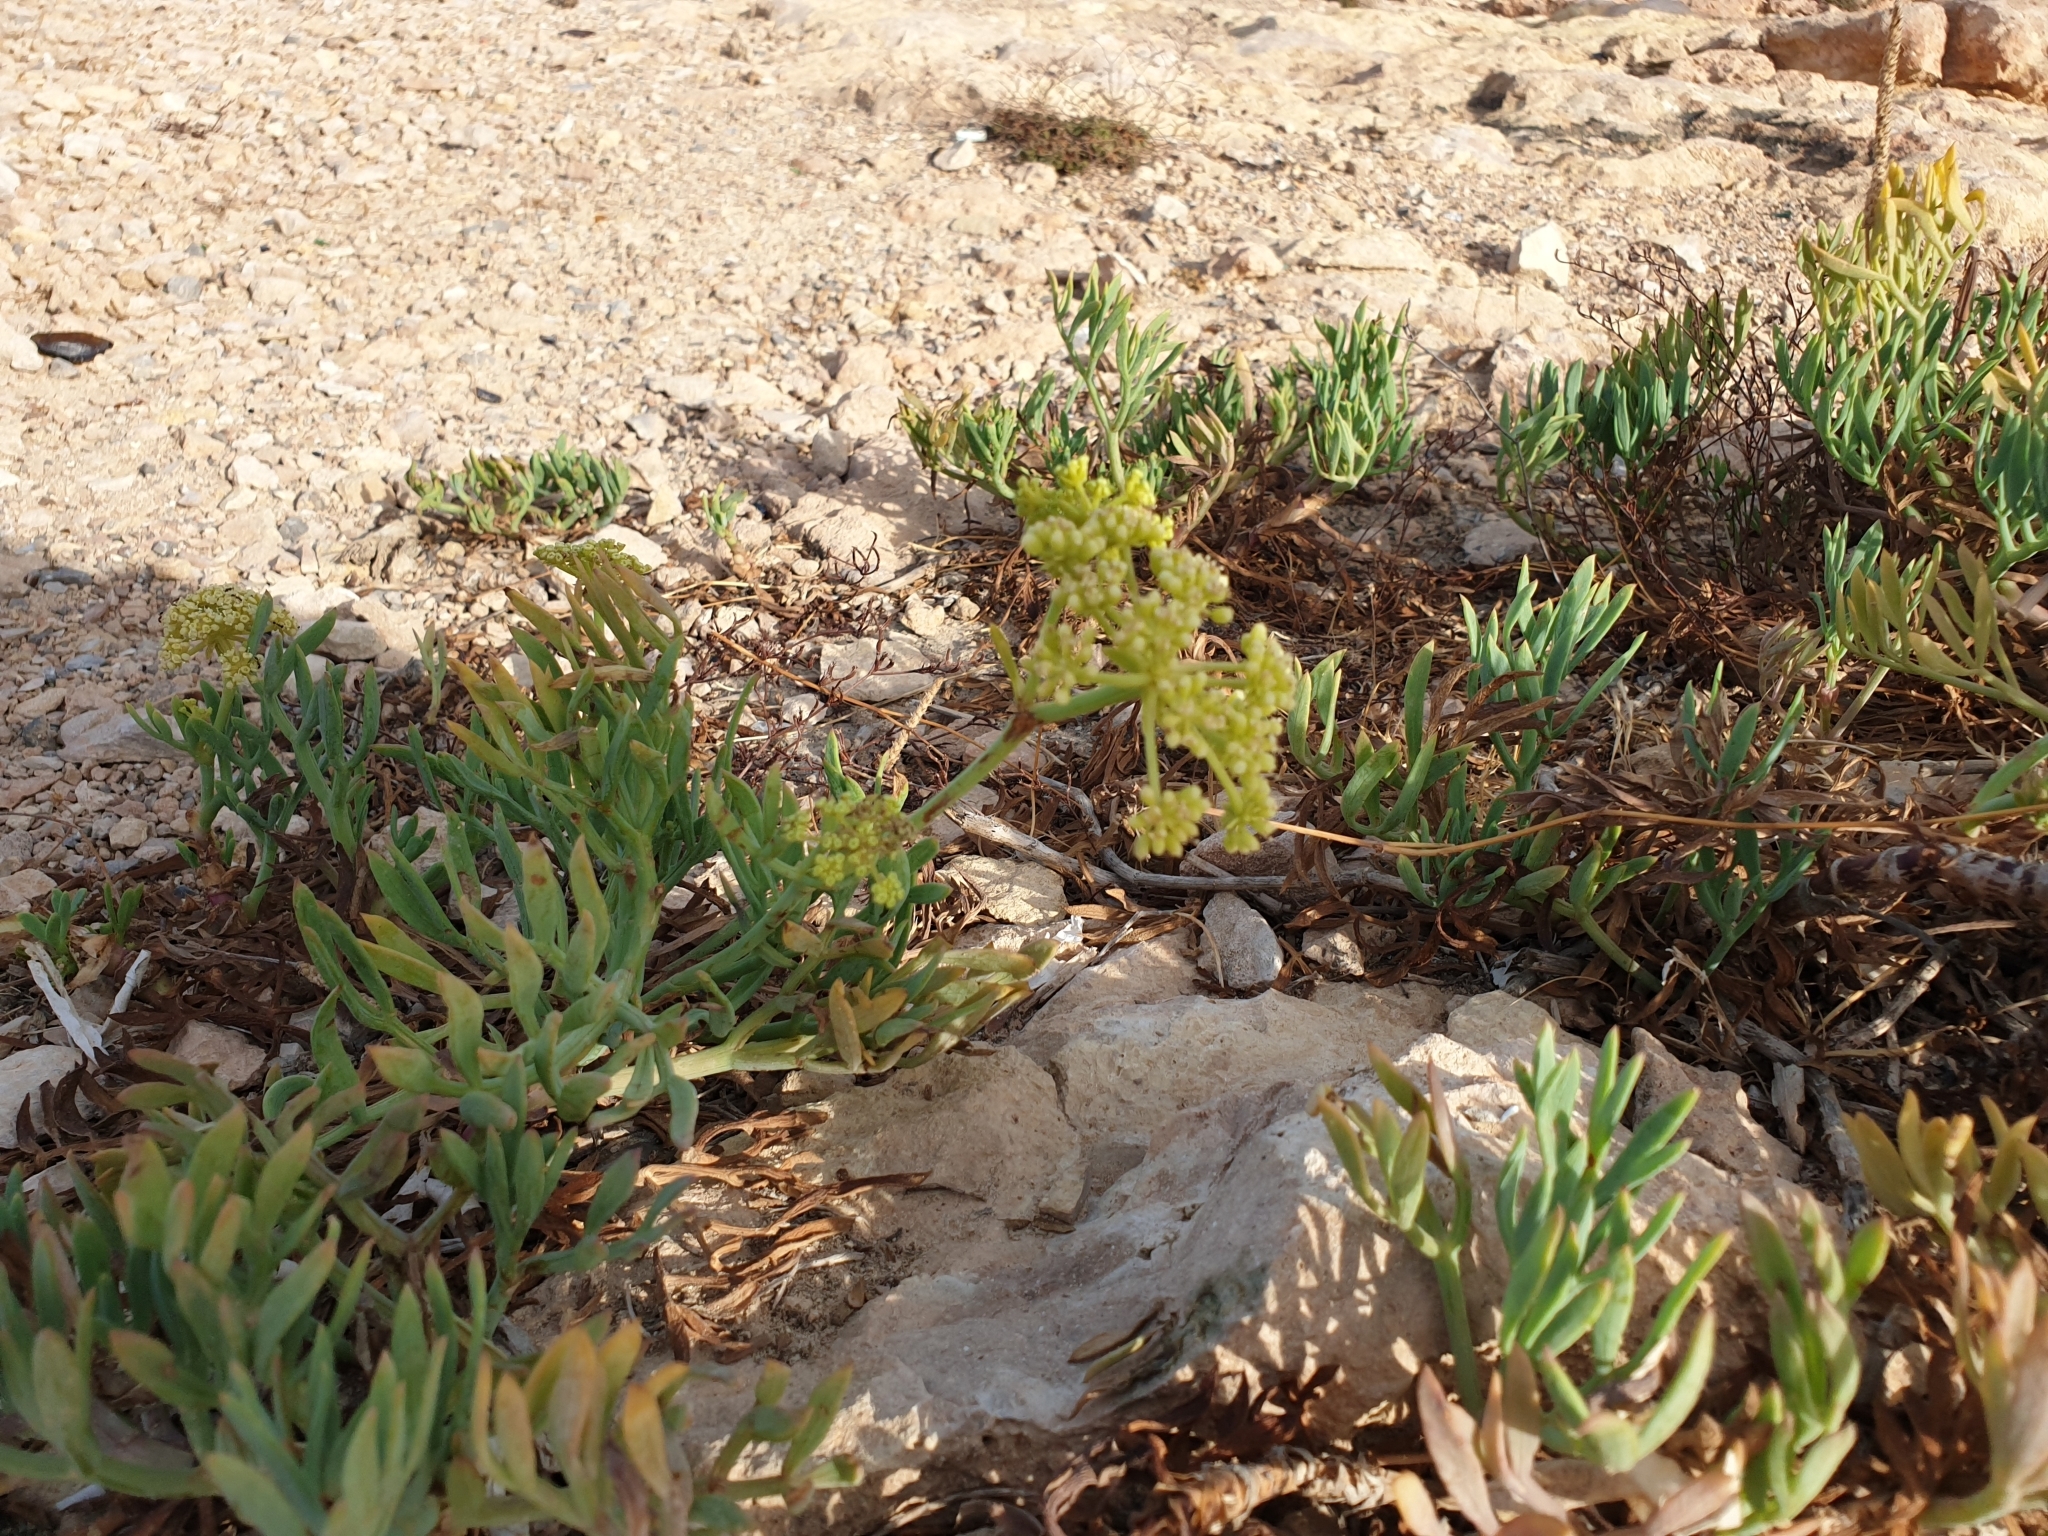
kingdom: Plantae
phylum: Tracheophyta
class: Magnoliopsida
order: Apiales
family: Apiaceae
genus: Crithmum
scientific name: Crithmum maritimum
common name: Rock samphire
